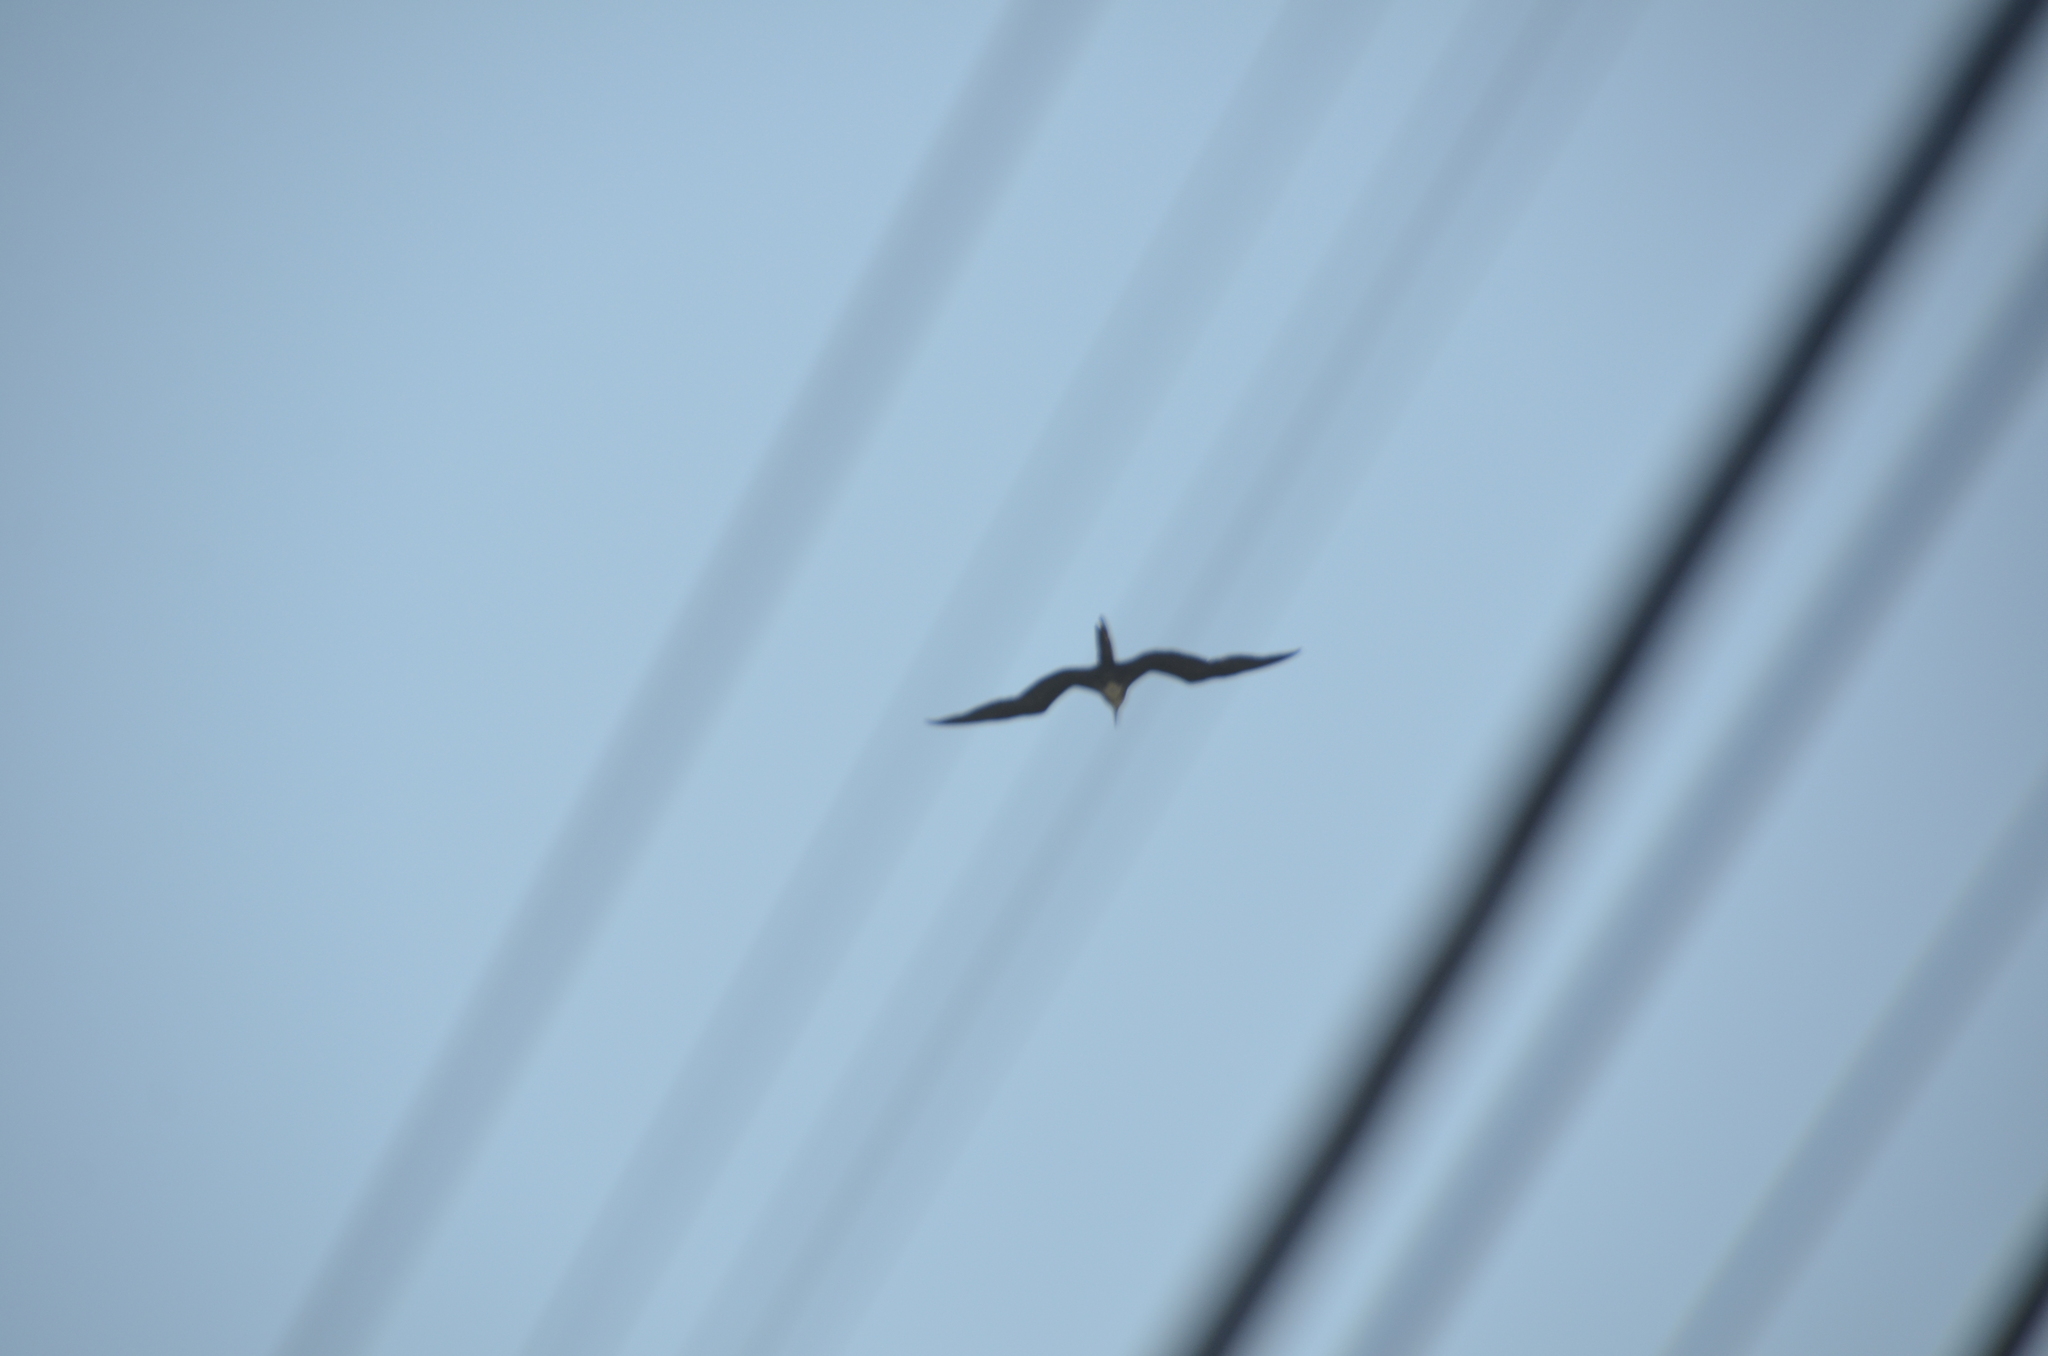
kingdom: Animalia
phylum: Chordata
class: Aves
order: Suliformes
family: Fregatidae
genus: Fregata
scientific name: Fregata magnificens
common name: Magnificent frigatebird
